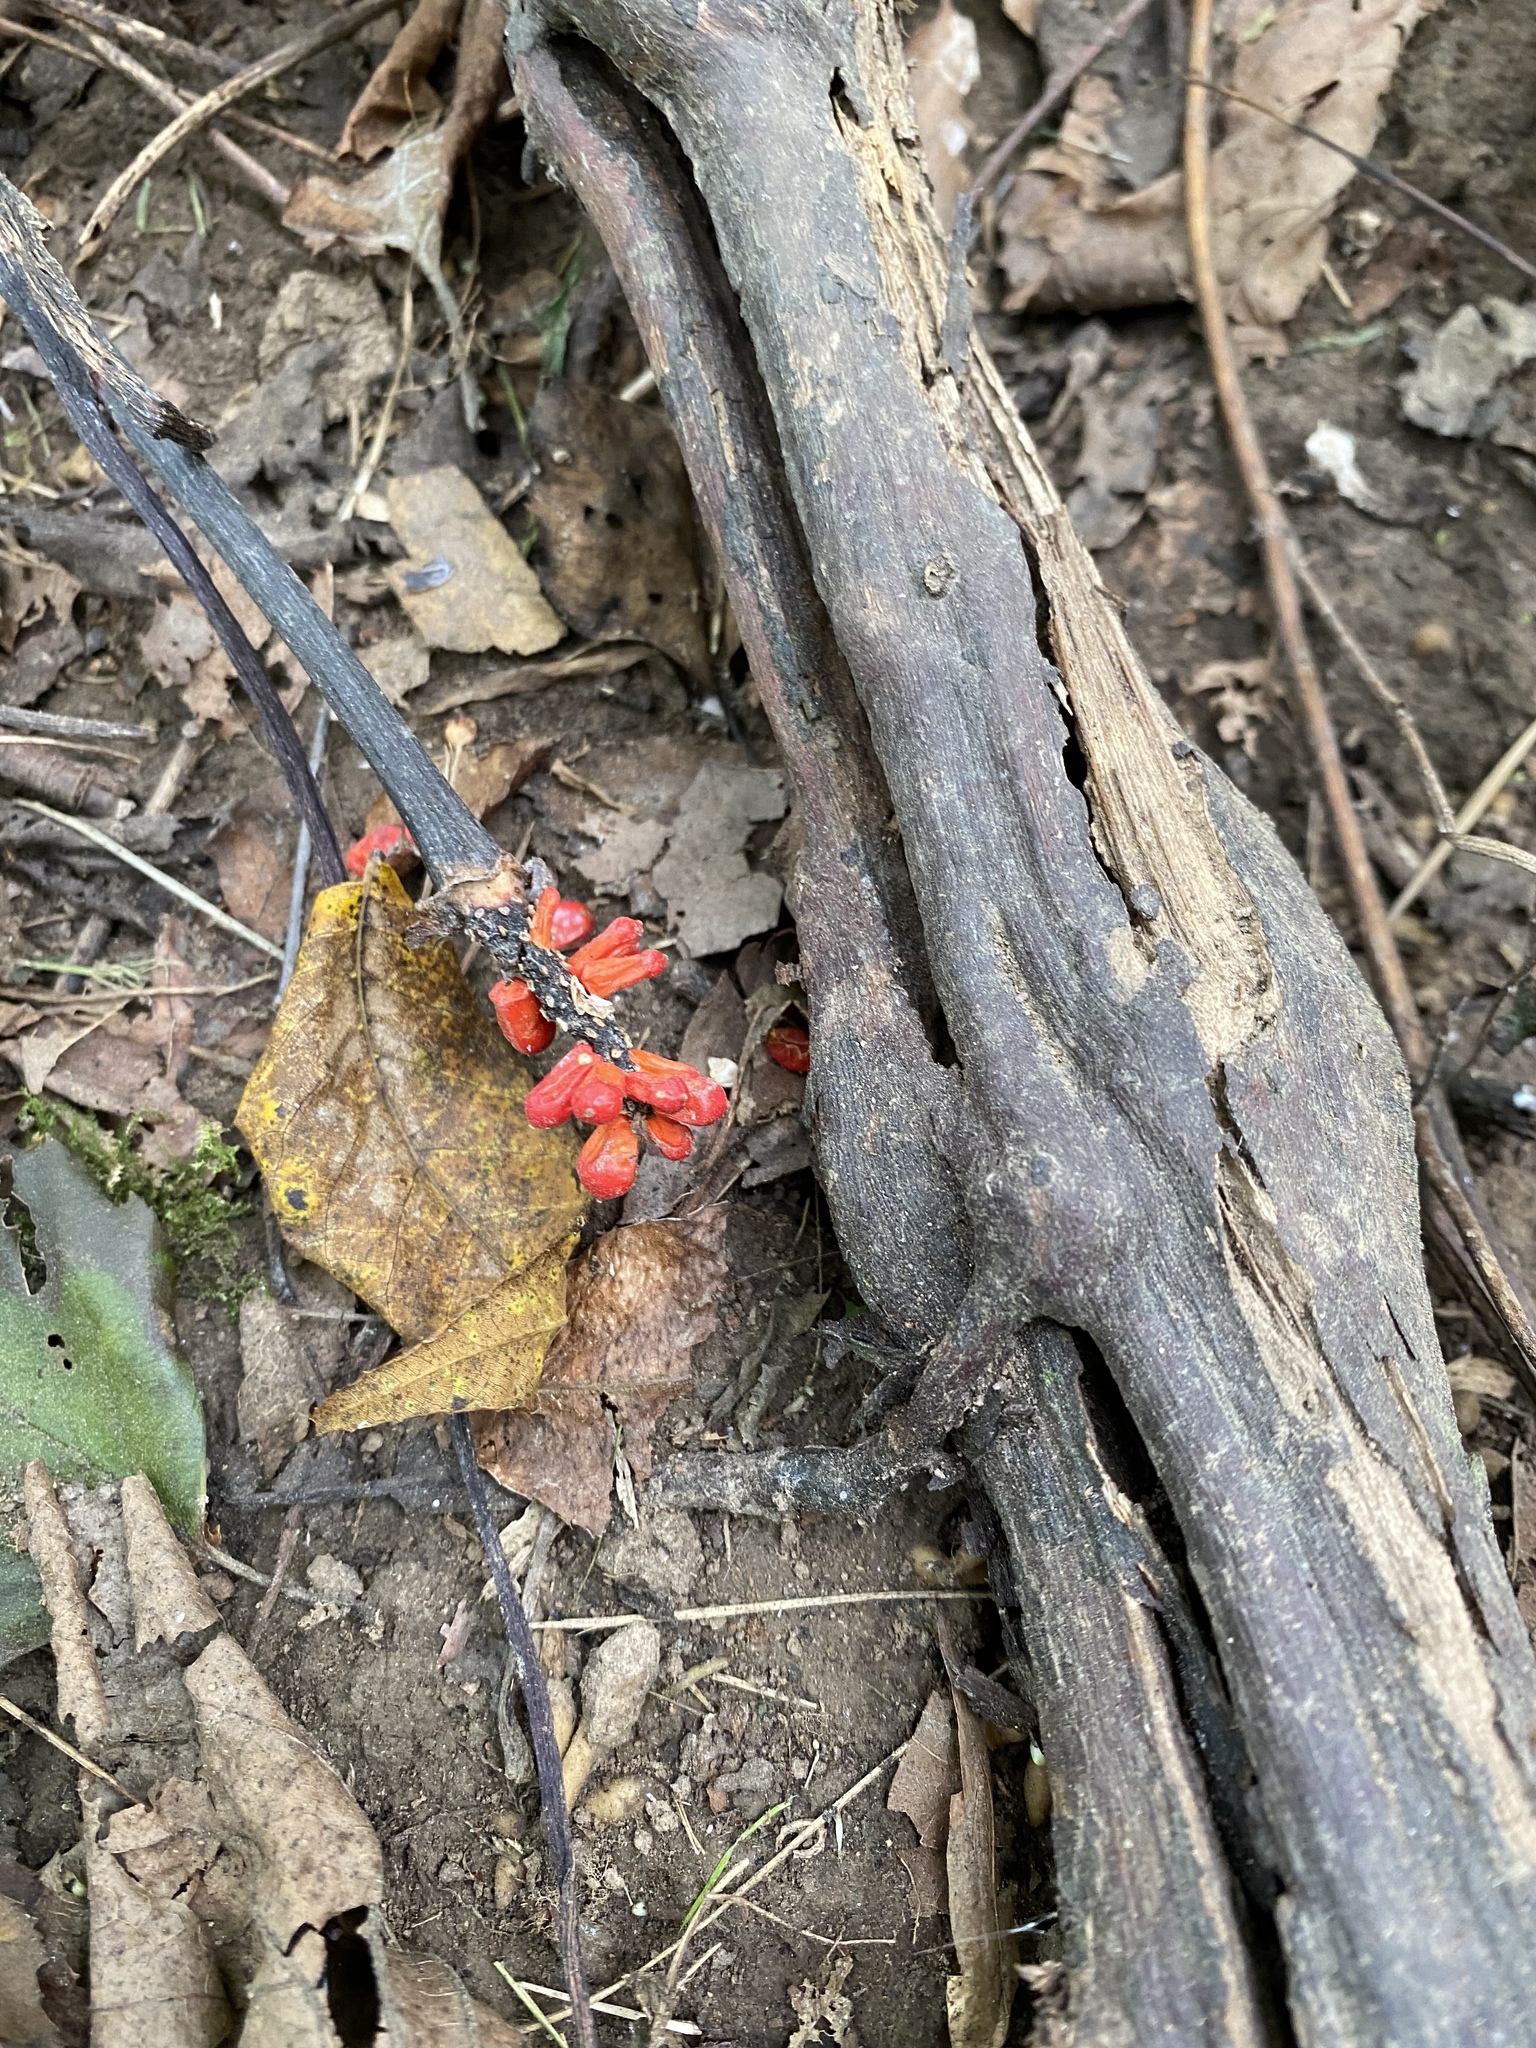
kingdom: Plantae
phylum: Tracheophyta
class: Liliopsida
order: Alismatales
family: Araceae
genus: Arisaema
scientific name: Arisaema triphyllum
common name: Jack-in-the-pulpit
